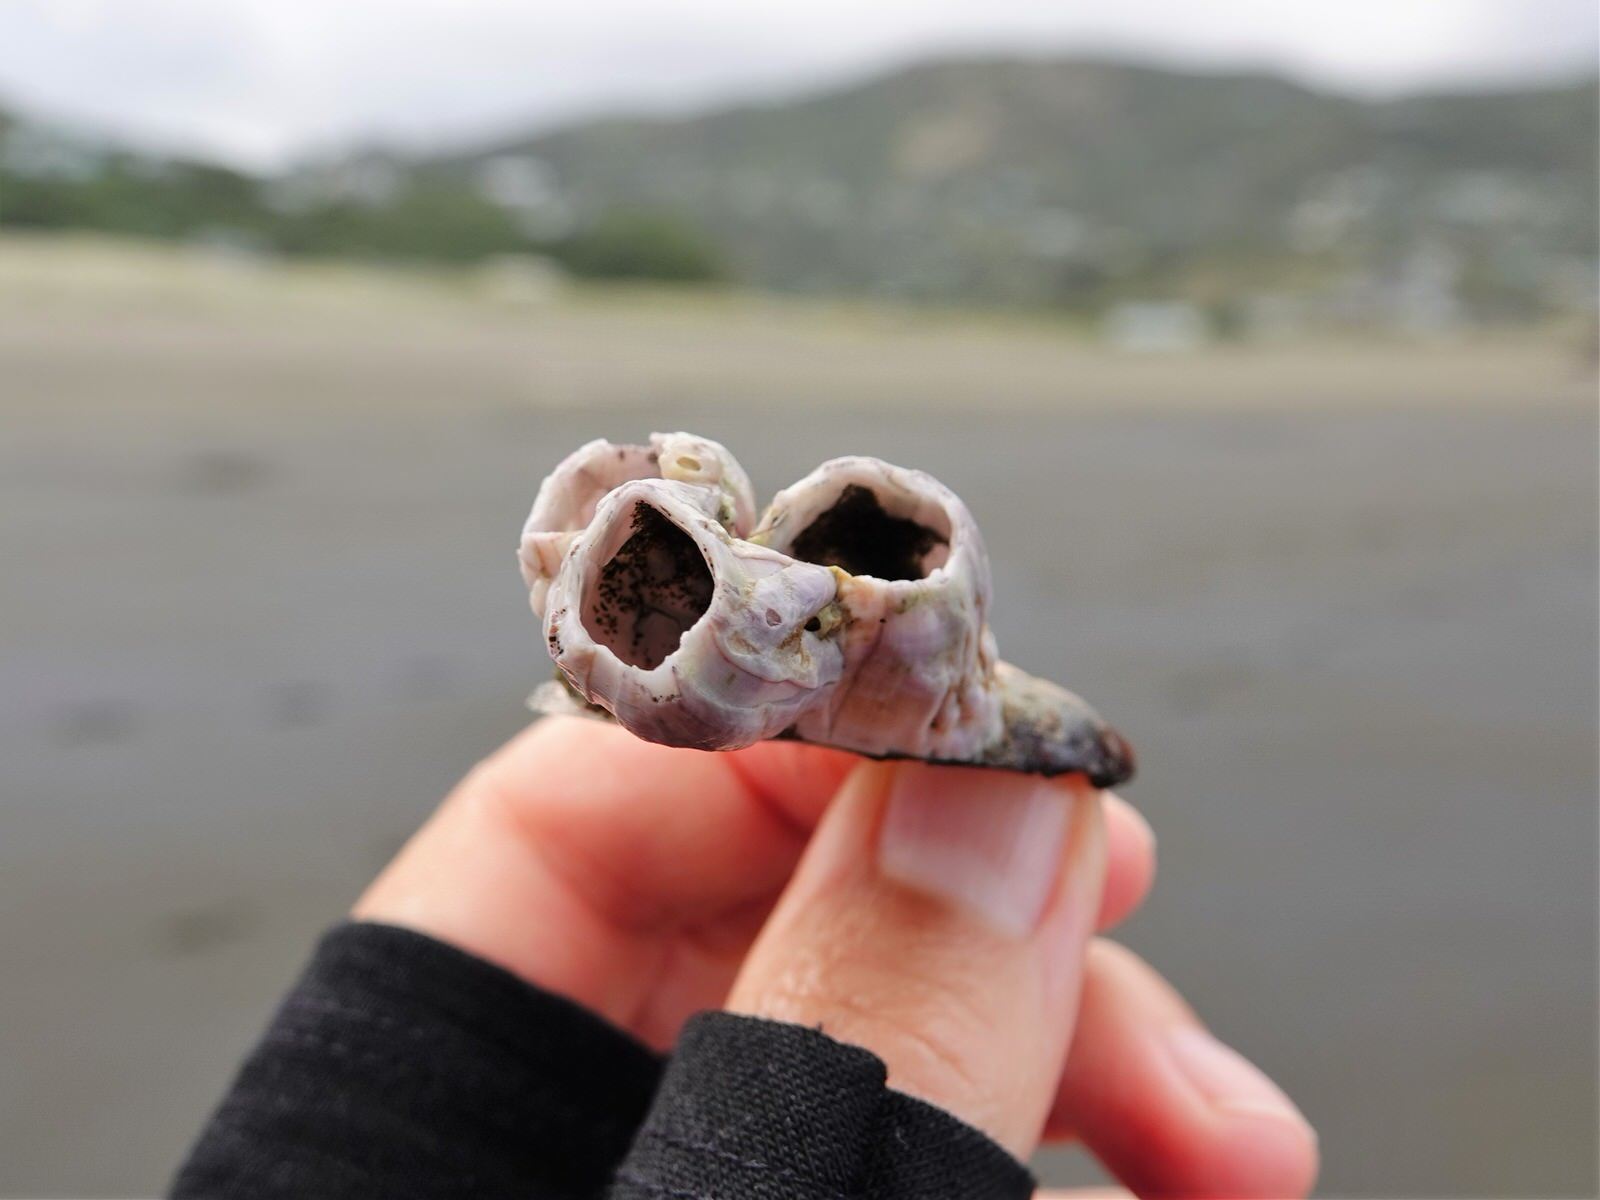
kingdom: Animalia
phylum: Arthropoda
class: Maxillopoda
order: Sessilia
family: Balanidae
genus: Notomegabalanus
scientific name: Notomegabalanus decorus
